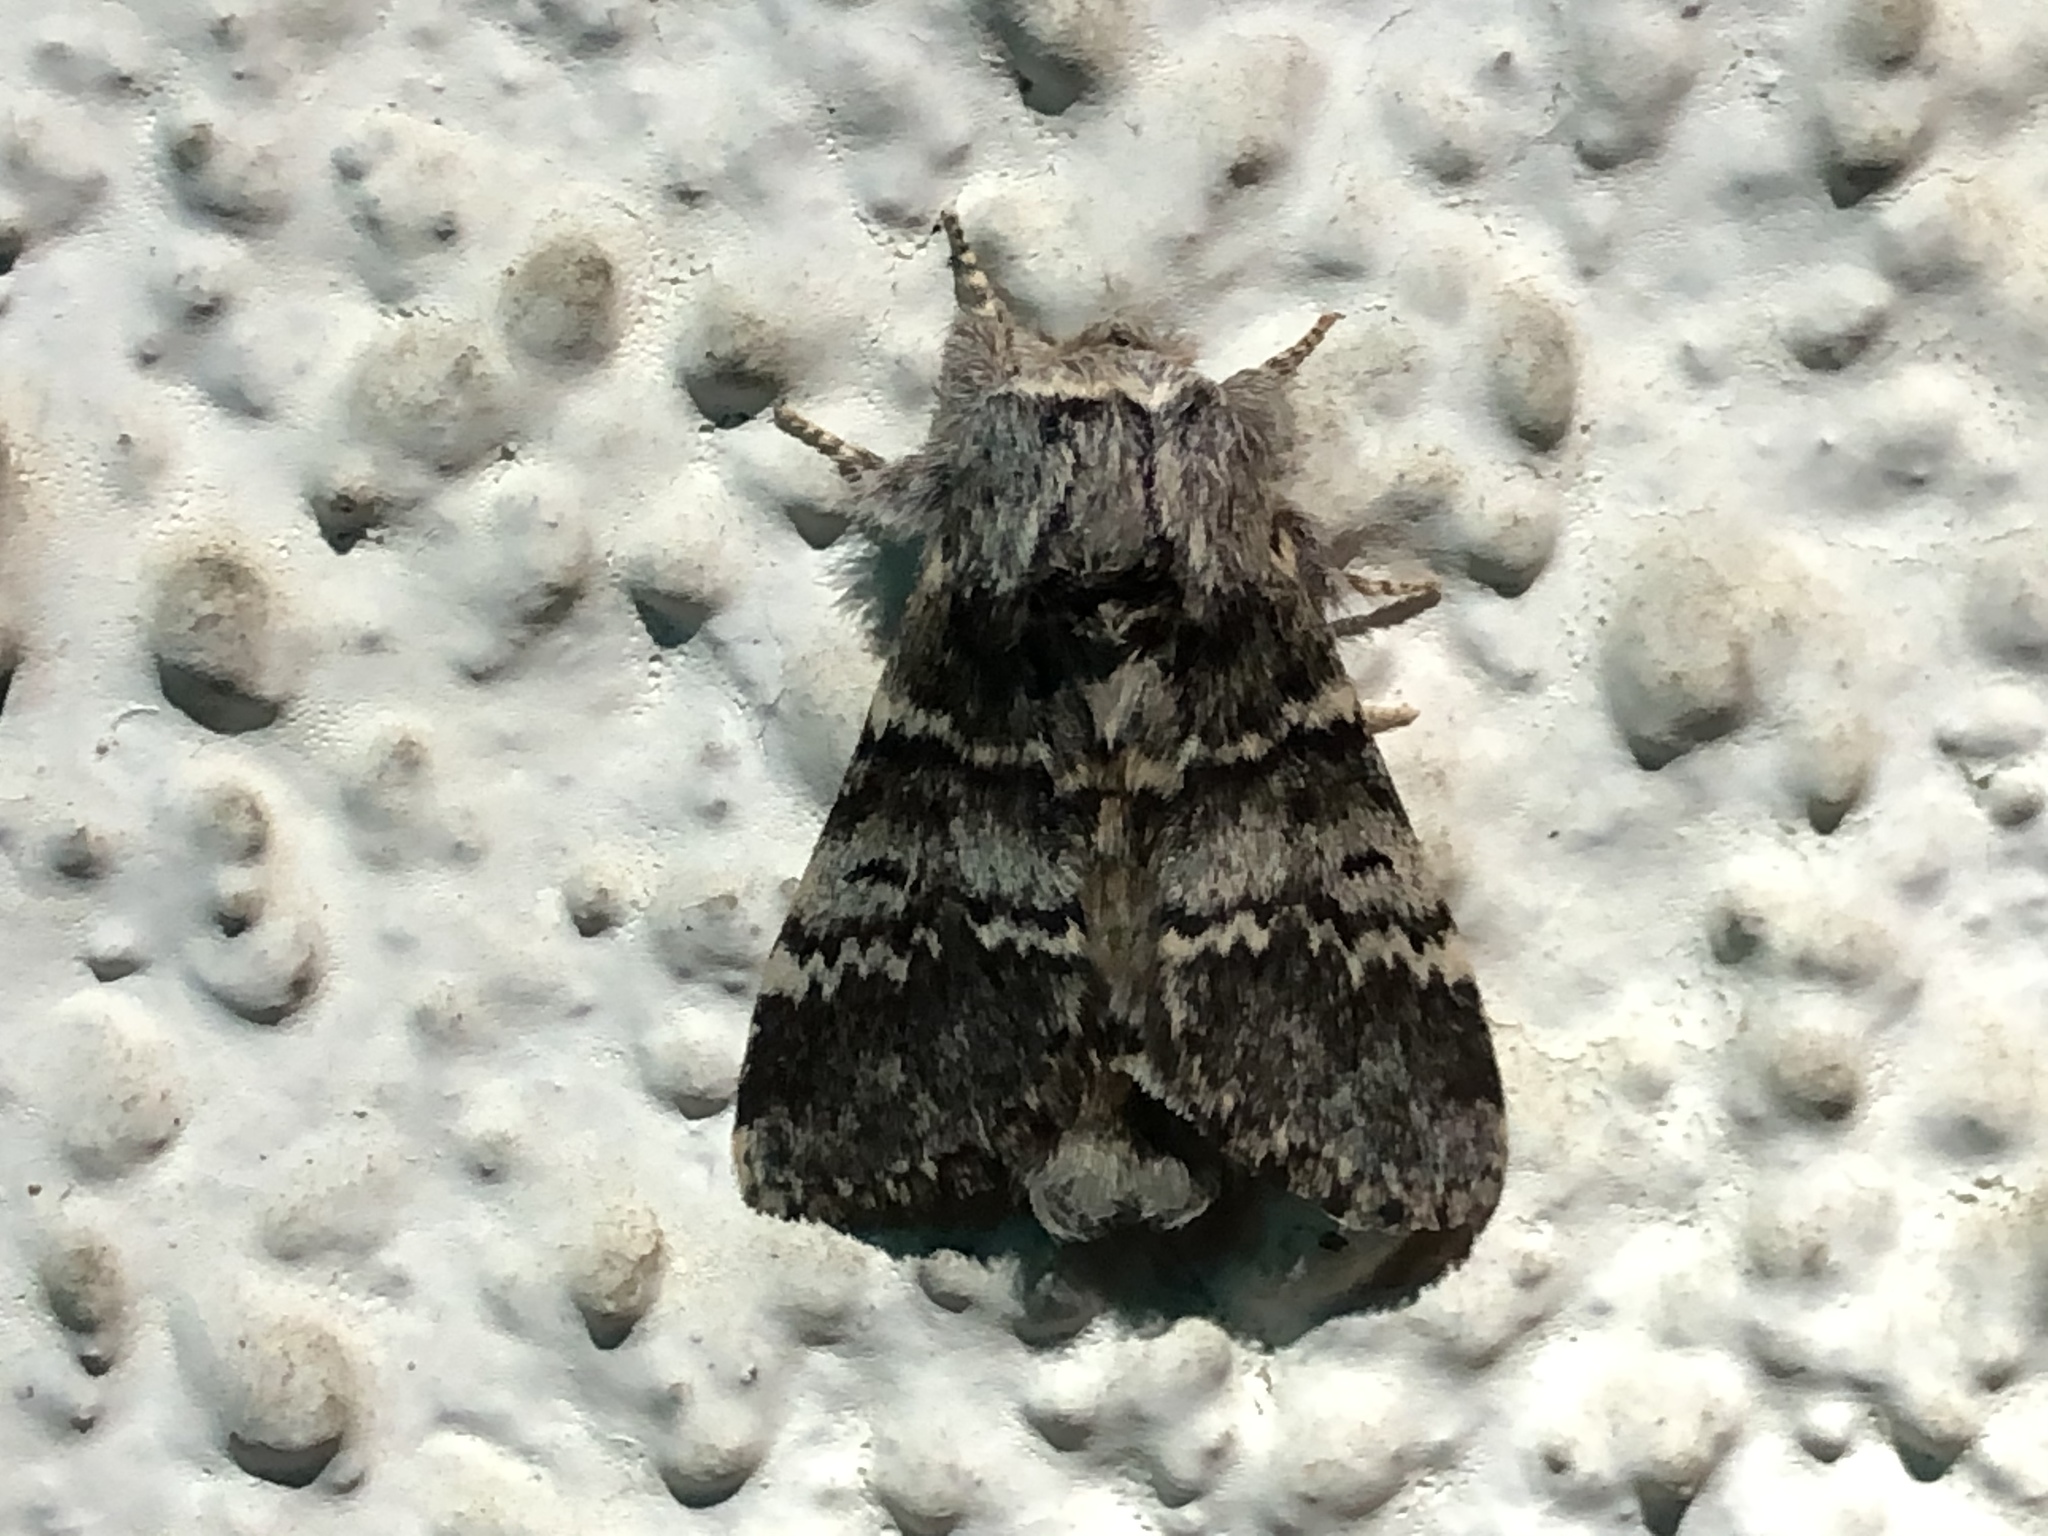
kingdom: Animalia
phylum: Arthropoda
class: Insecta
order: Lepidoptera
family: Notodontidae
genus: Drymonia
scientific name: Drymonia ruficornis
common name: Lunar marbled brown
